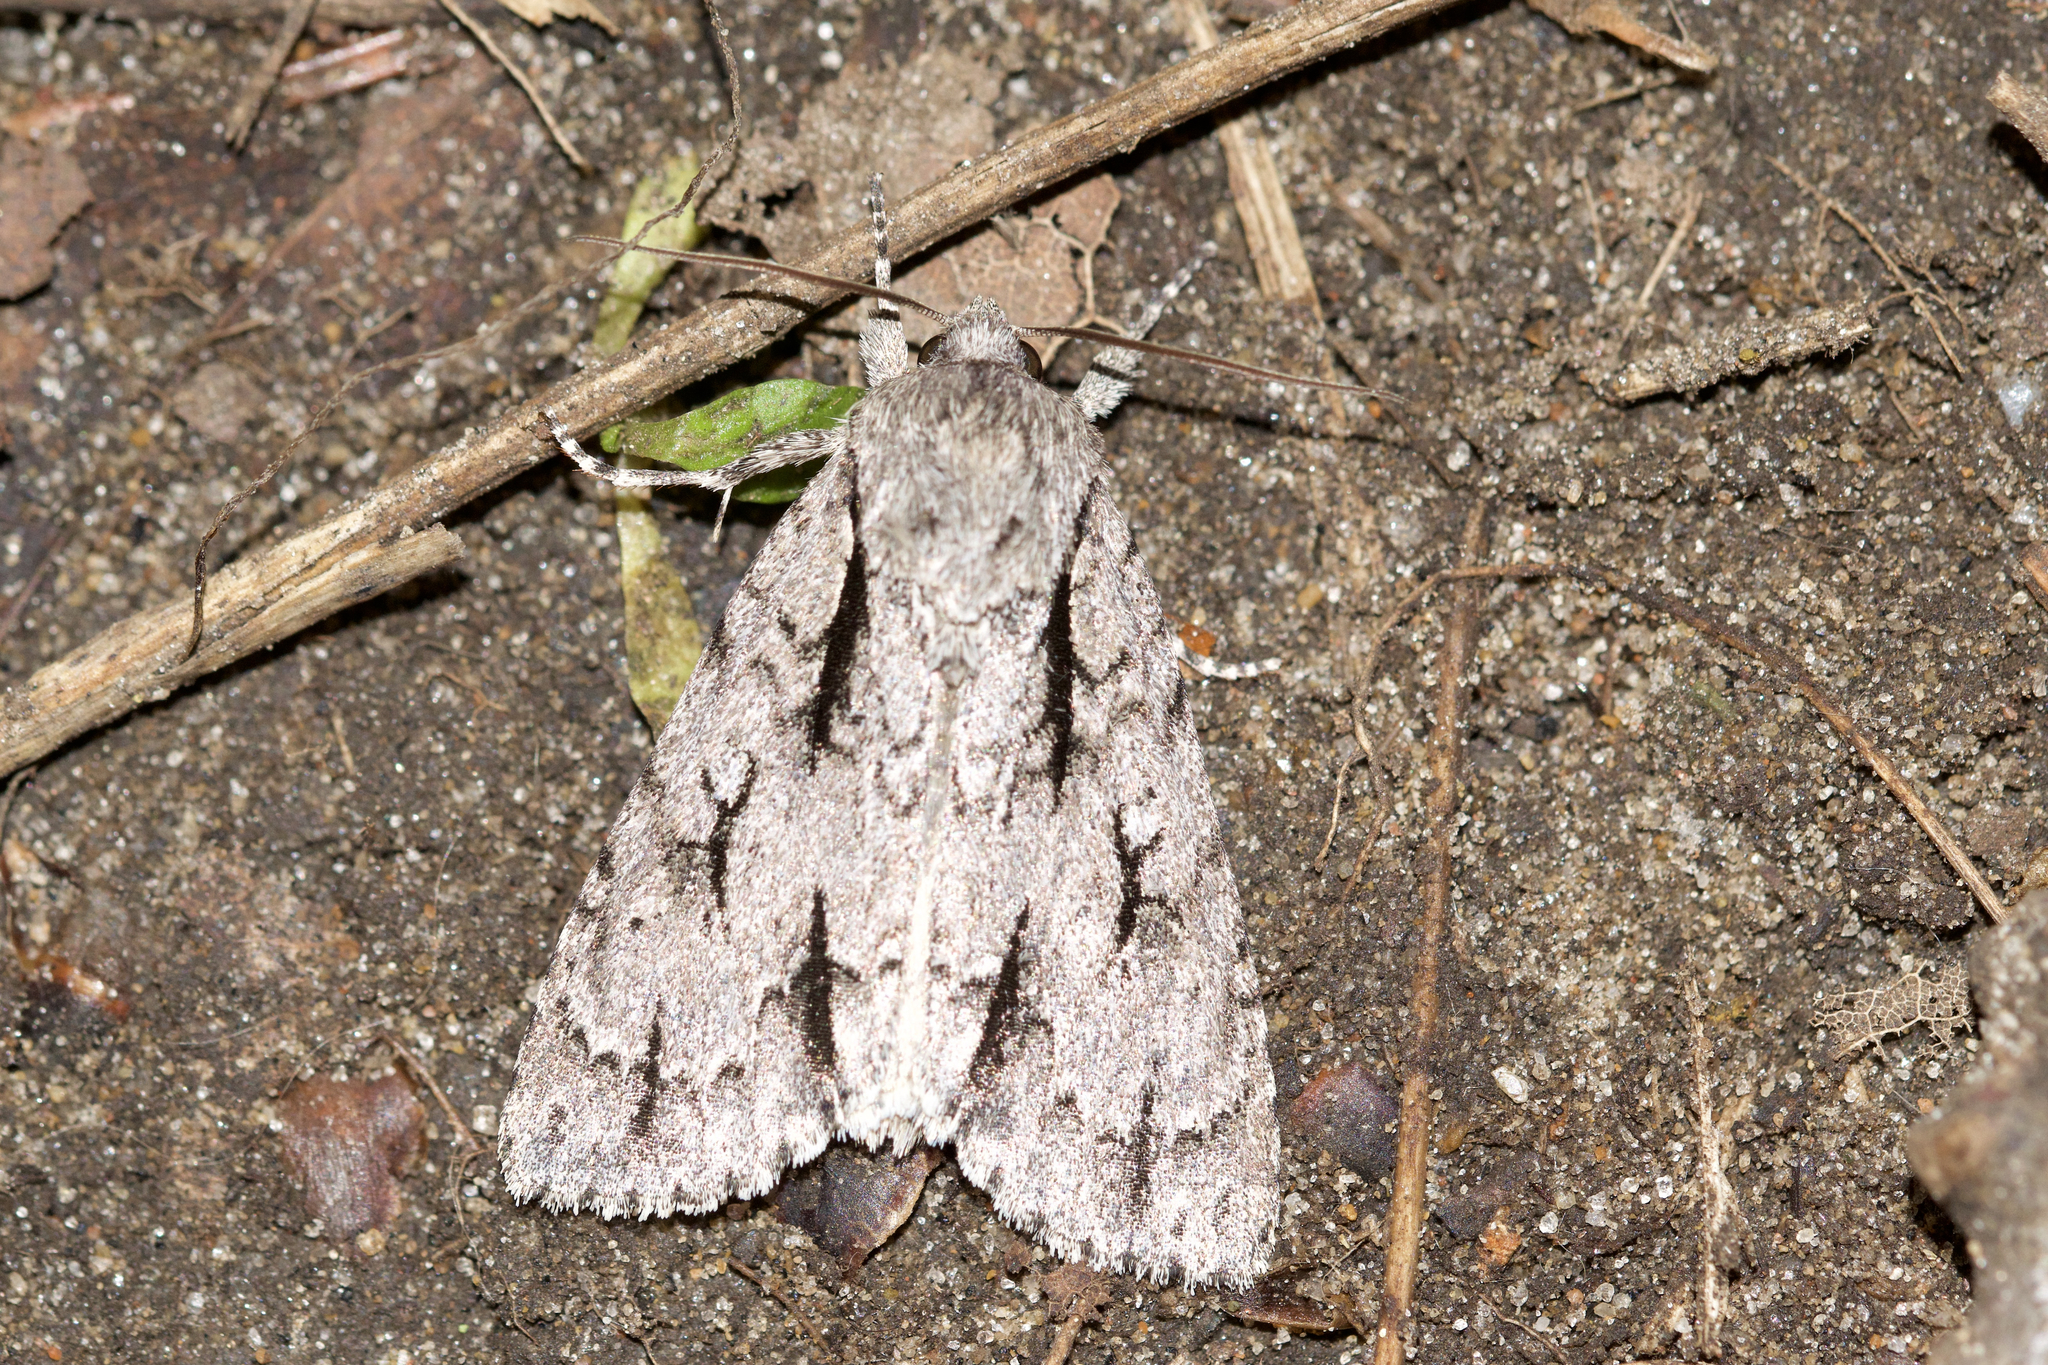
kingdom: Animalia
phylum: Arthropoda
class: Insecta
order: Lepidoptera
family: Noctuidae
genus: Acronicta
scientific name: Acronicta lobeliae
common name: Greater oak dagger
